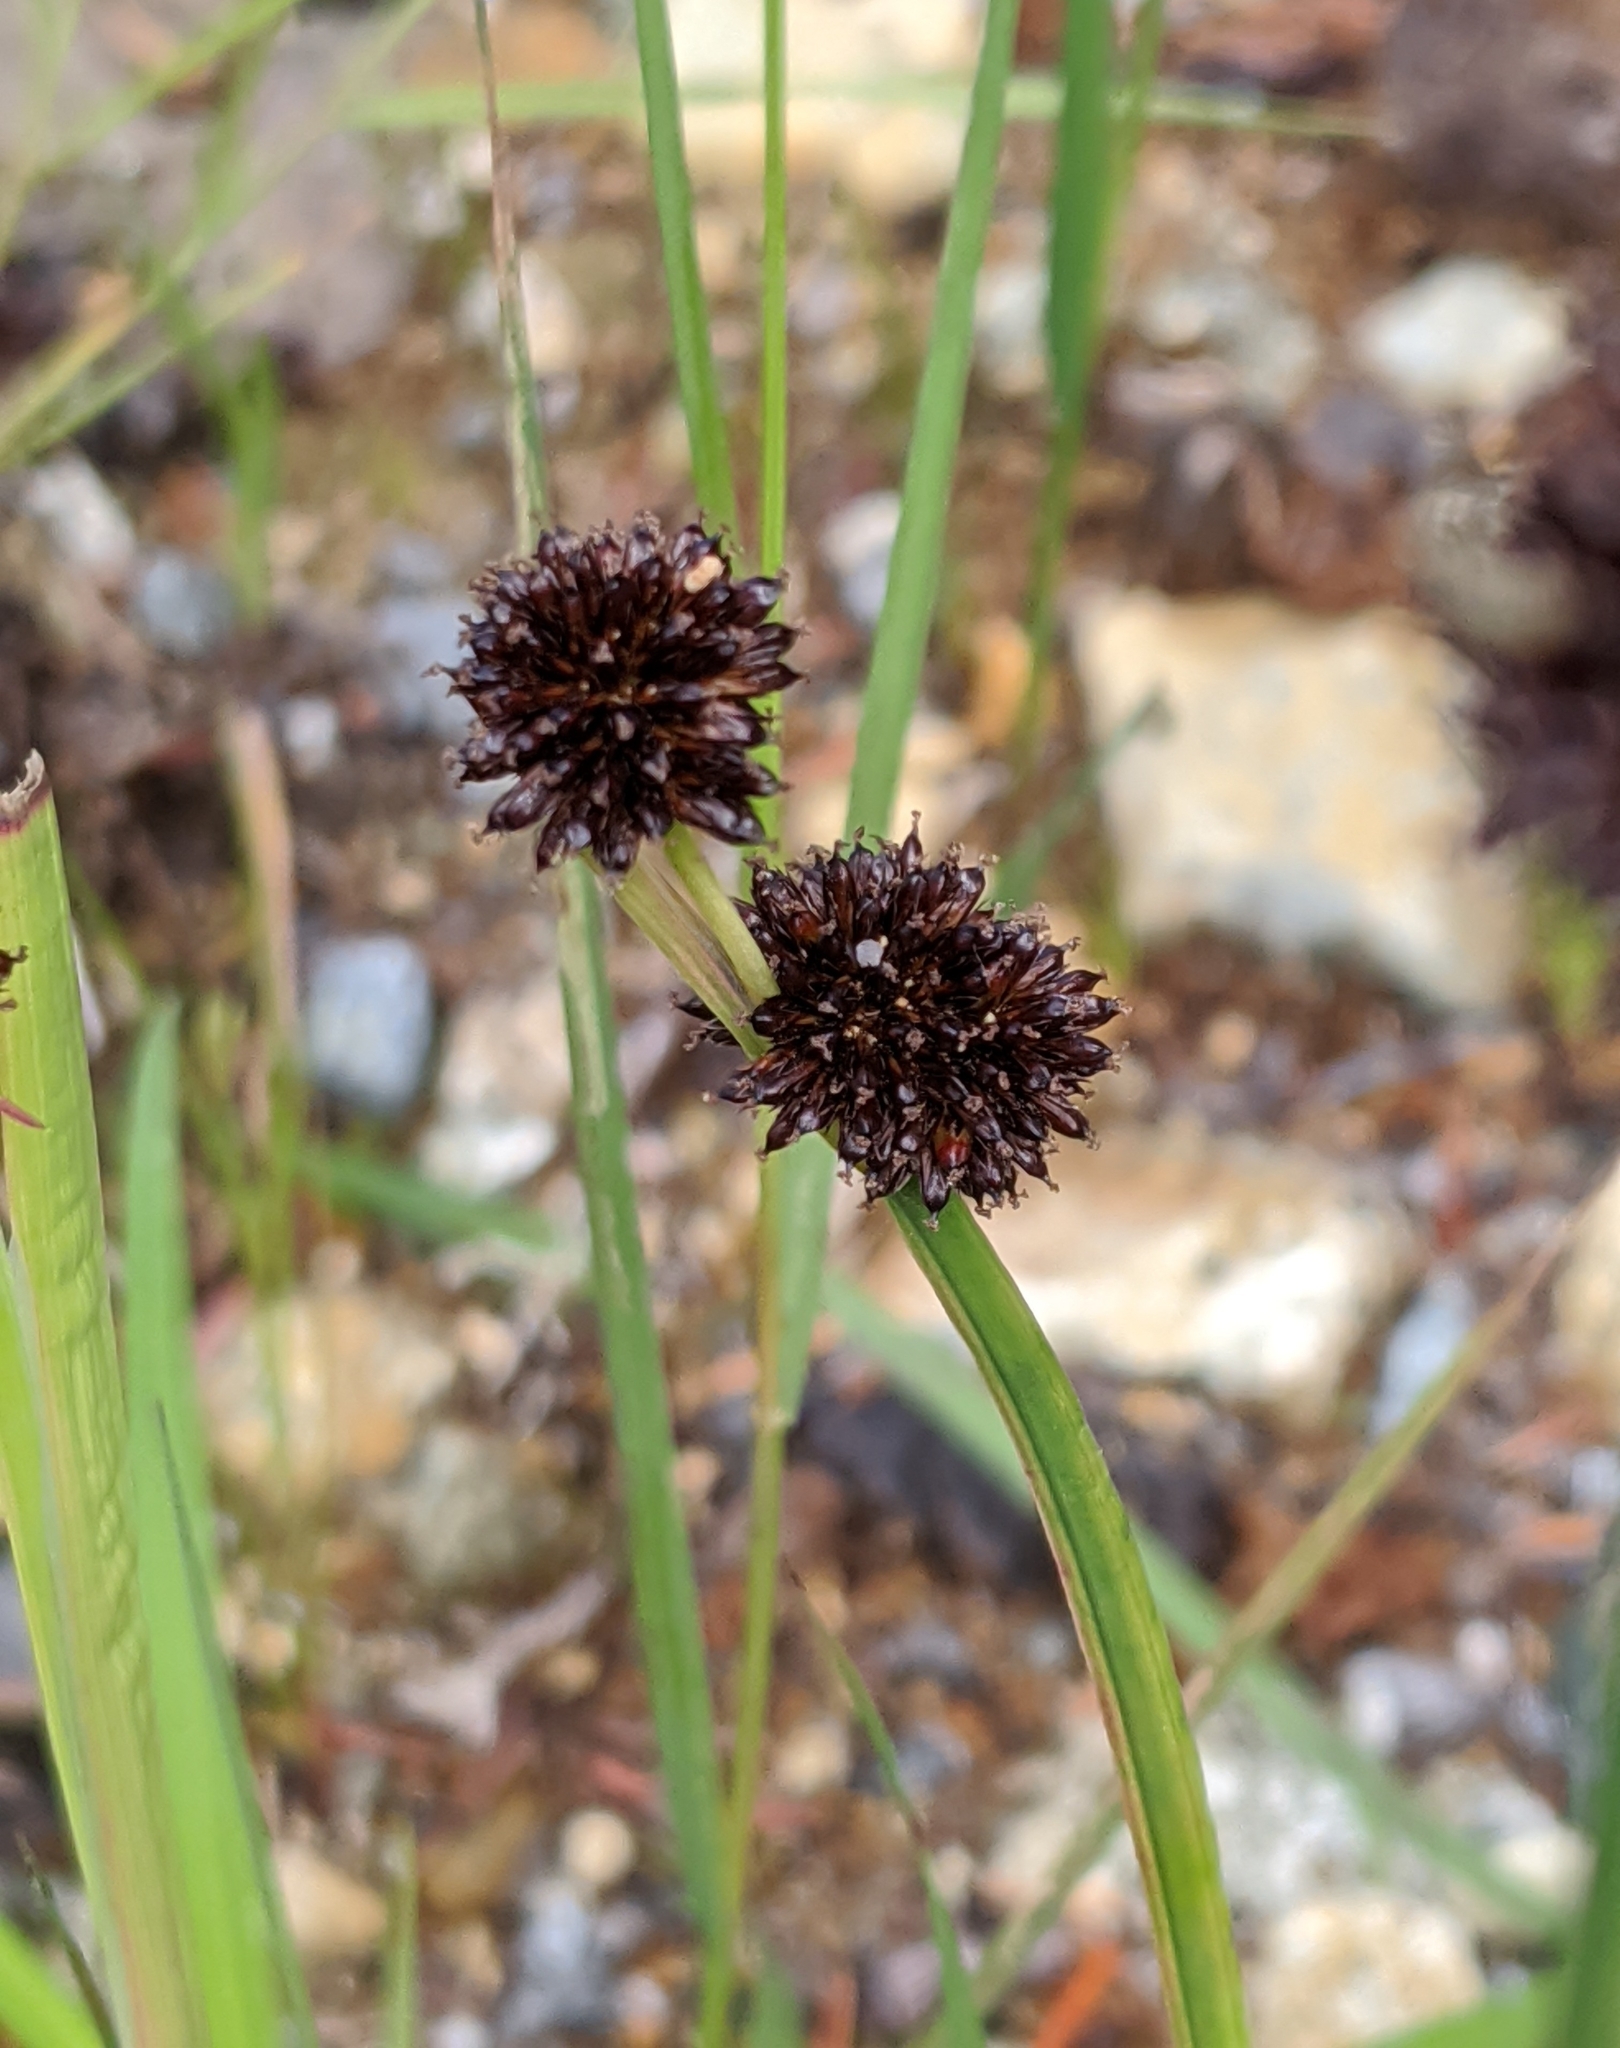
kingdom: Plantae
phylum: Tracheophyta
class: Liliopsida
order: Poales
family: Juncaceae
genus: Juncus
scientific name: Juncus mertensianus
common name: Merten's rush
